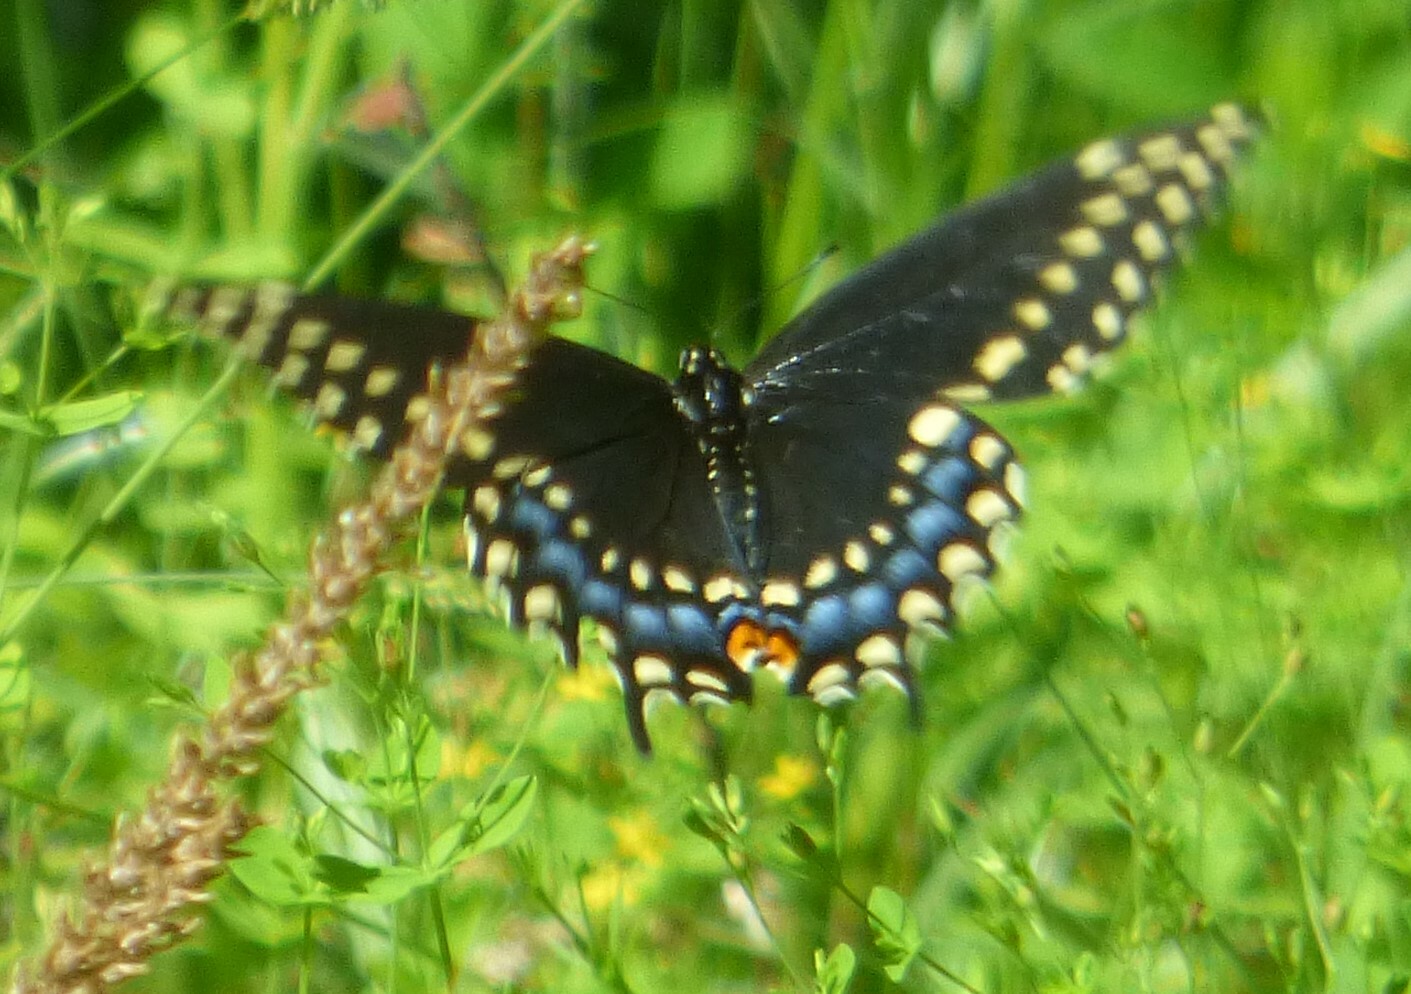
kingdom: Animalia
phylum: Arthropoda
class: Insecta
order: Lepidoptera
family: Papilionidae
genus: Papilio
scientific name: Papilio polyxenes
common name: Black swallowtail
